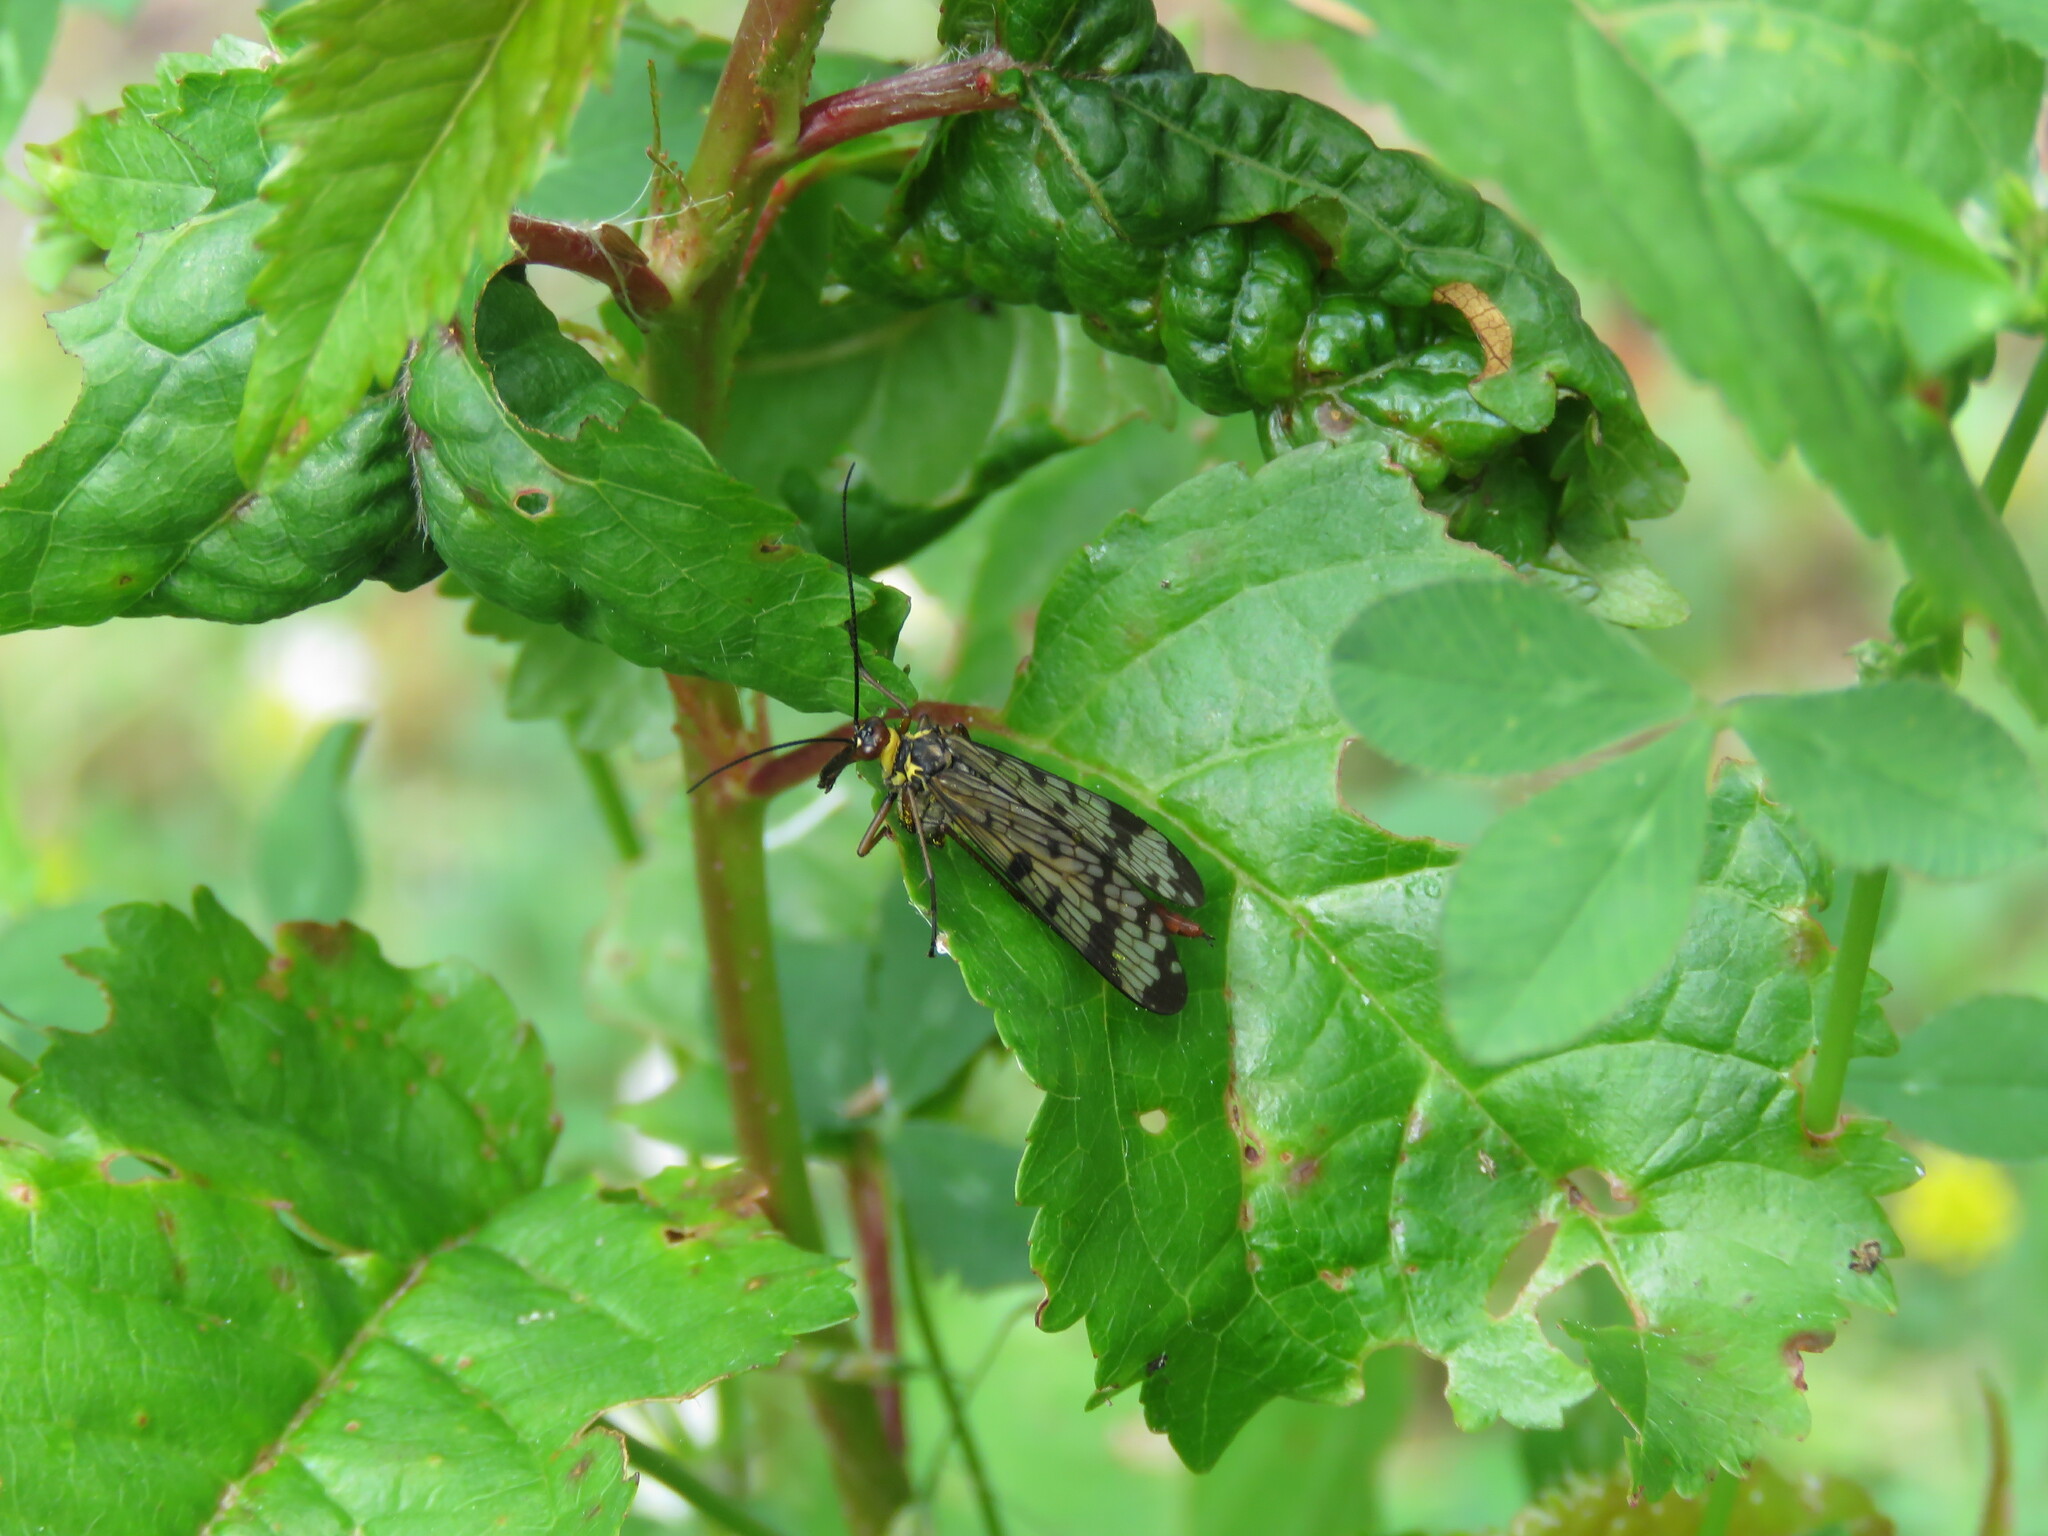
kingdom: Animalia
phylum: Arthropoda
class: Insecta
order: Mecoptera
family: Panorpidae
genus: Panorpa
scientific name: Panorpa meridionalis
